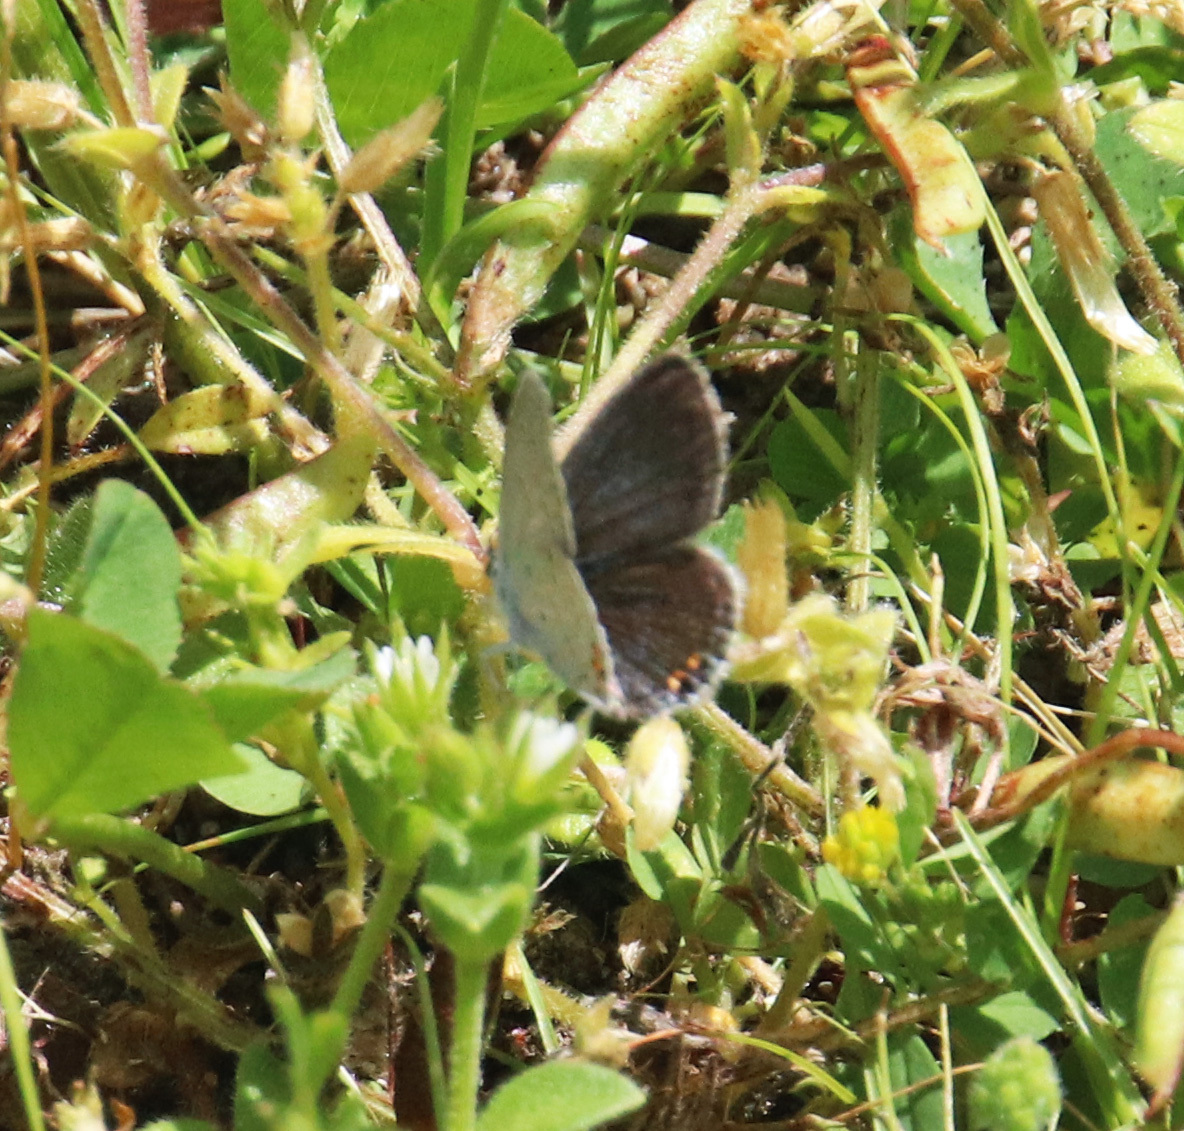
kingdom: Animalia
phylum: Arthropoda
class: Insecta
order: Lepidoptera
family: Lycaenidae
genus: Elkalyce
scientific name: Elkalyce comyntas
